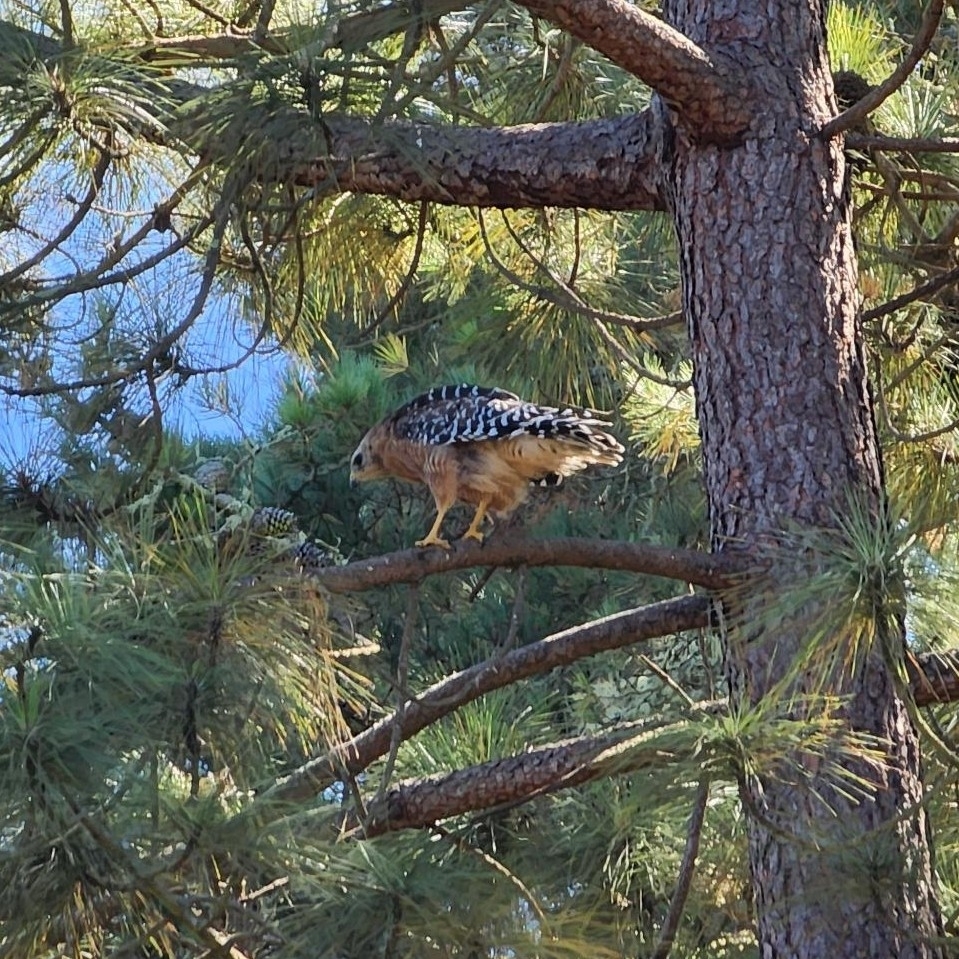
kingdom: Animalia
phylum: Chordata
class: Aves
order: Accipitriformes
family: Accipitridae
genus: Buteo
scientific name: Buteo lineatus
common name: Red-shouldered hawk
